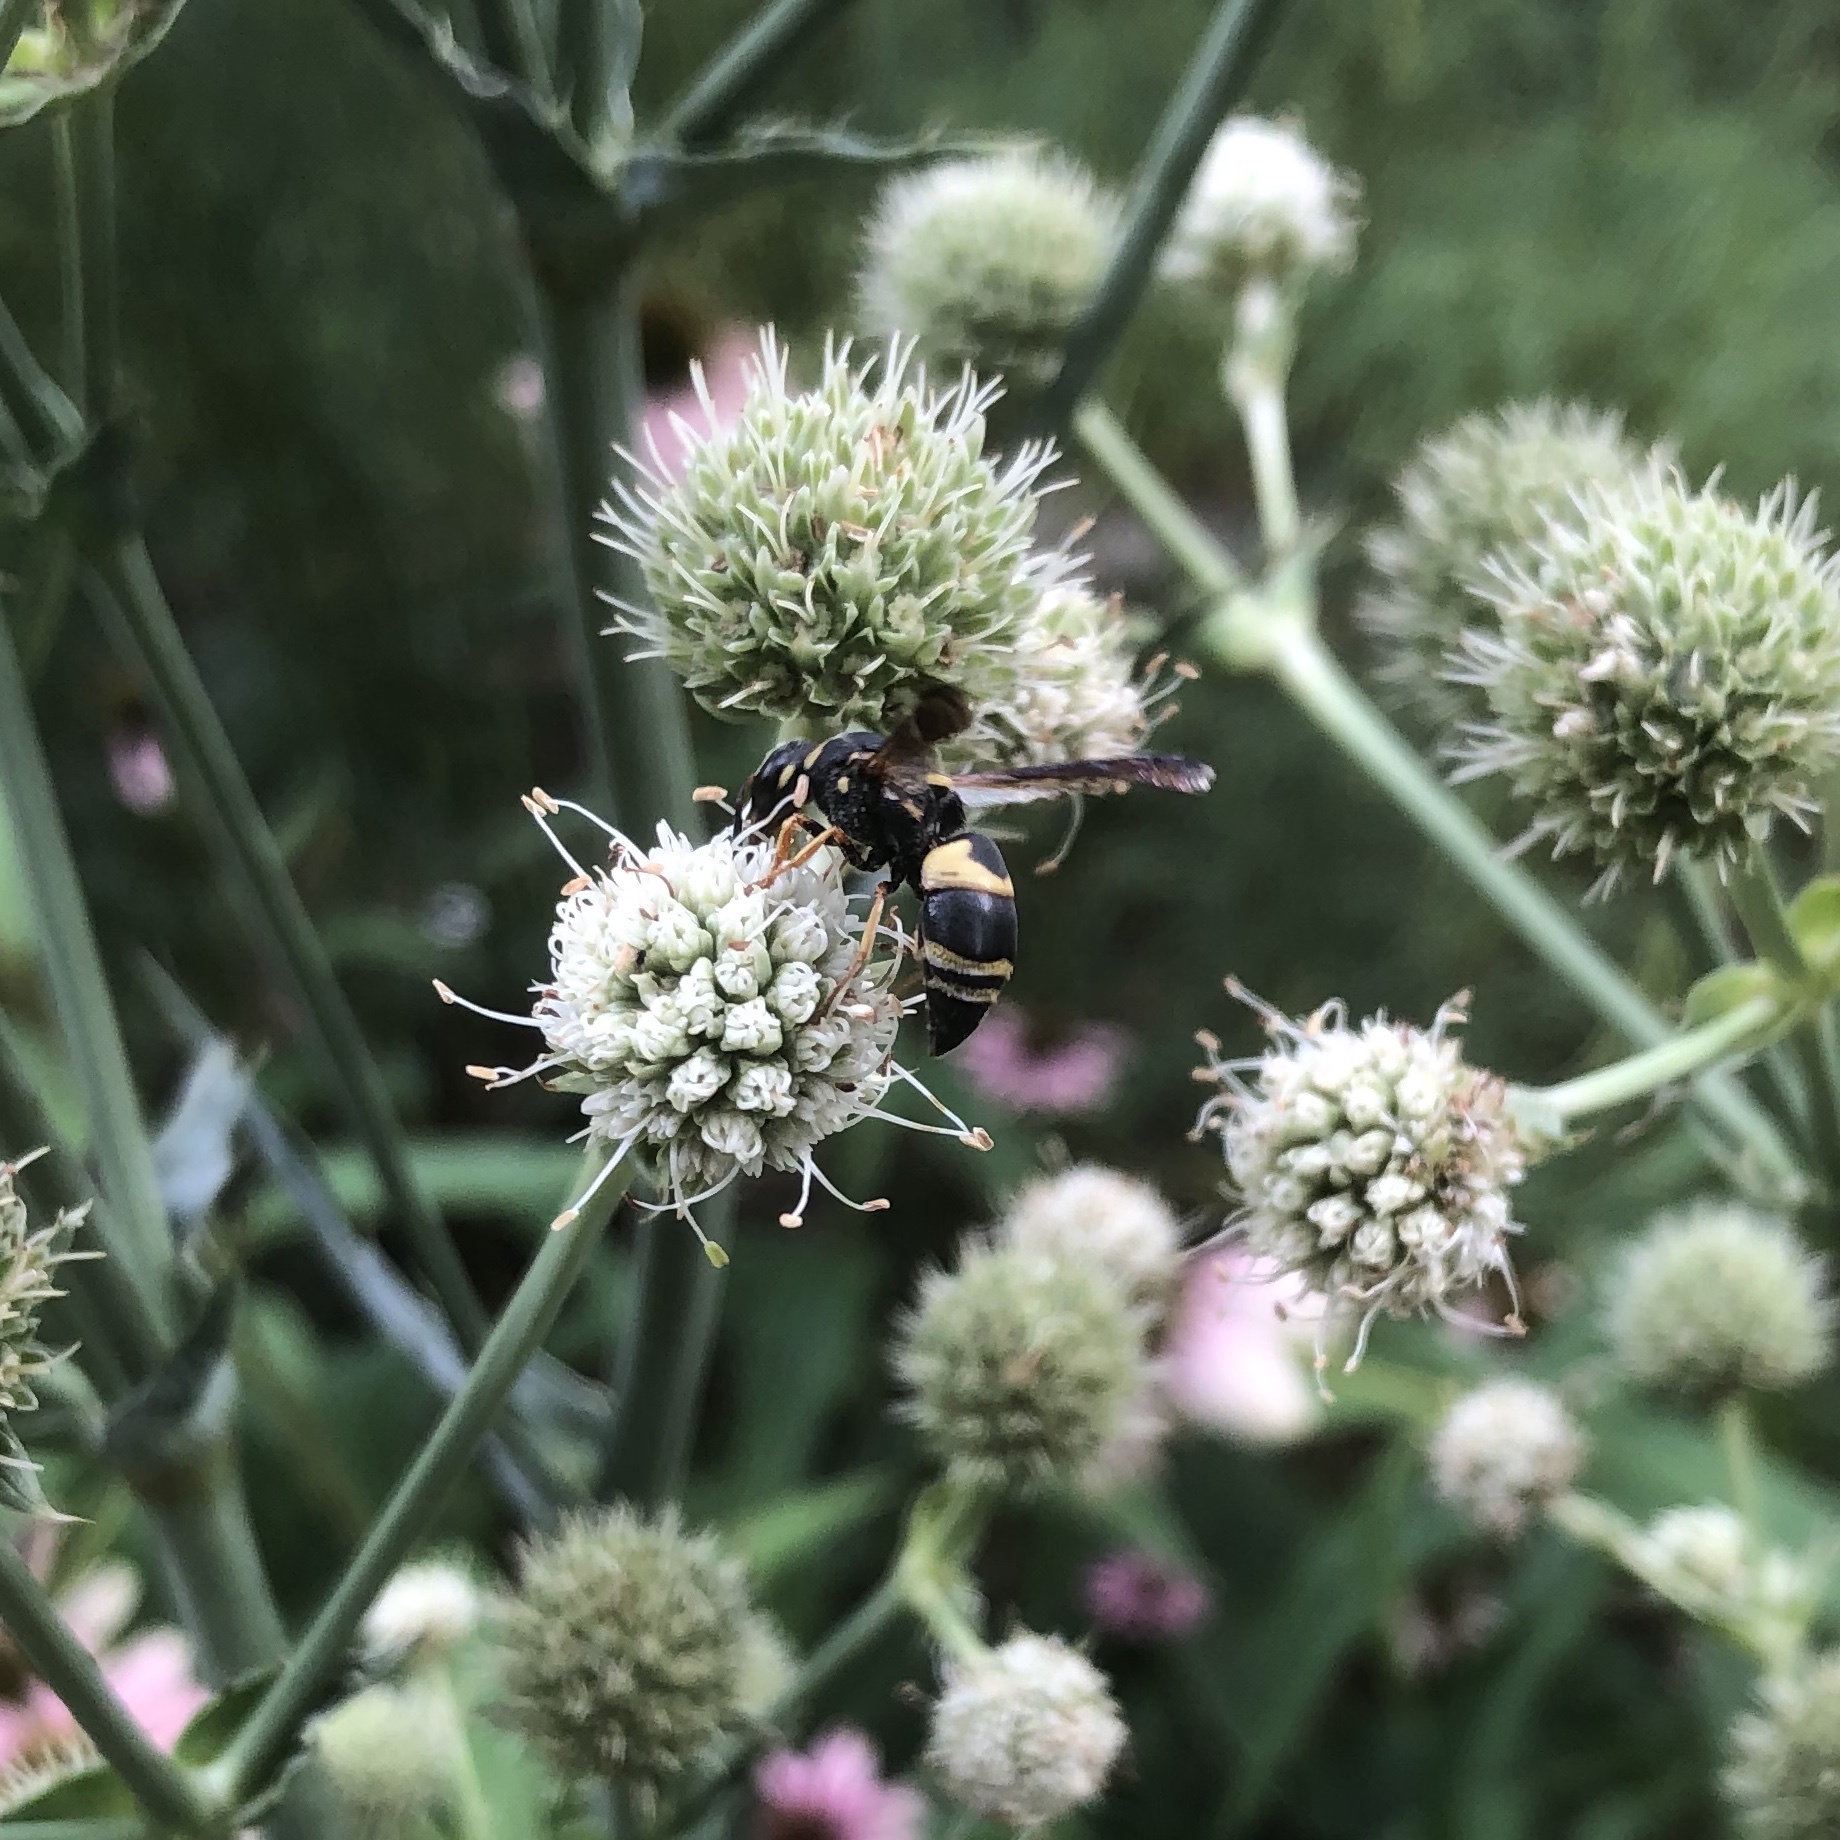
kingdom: Animalia
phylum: Arthropoda
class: Insecta
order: Hymenoptera
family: Eumenidae
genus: Euodynerus
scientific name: Euodynerus hidalgo
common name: Wasp
